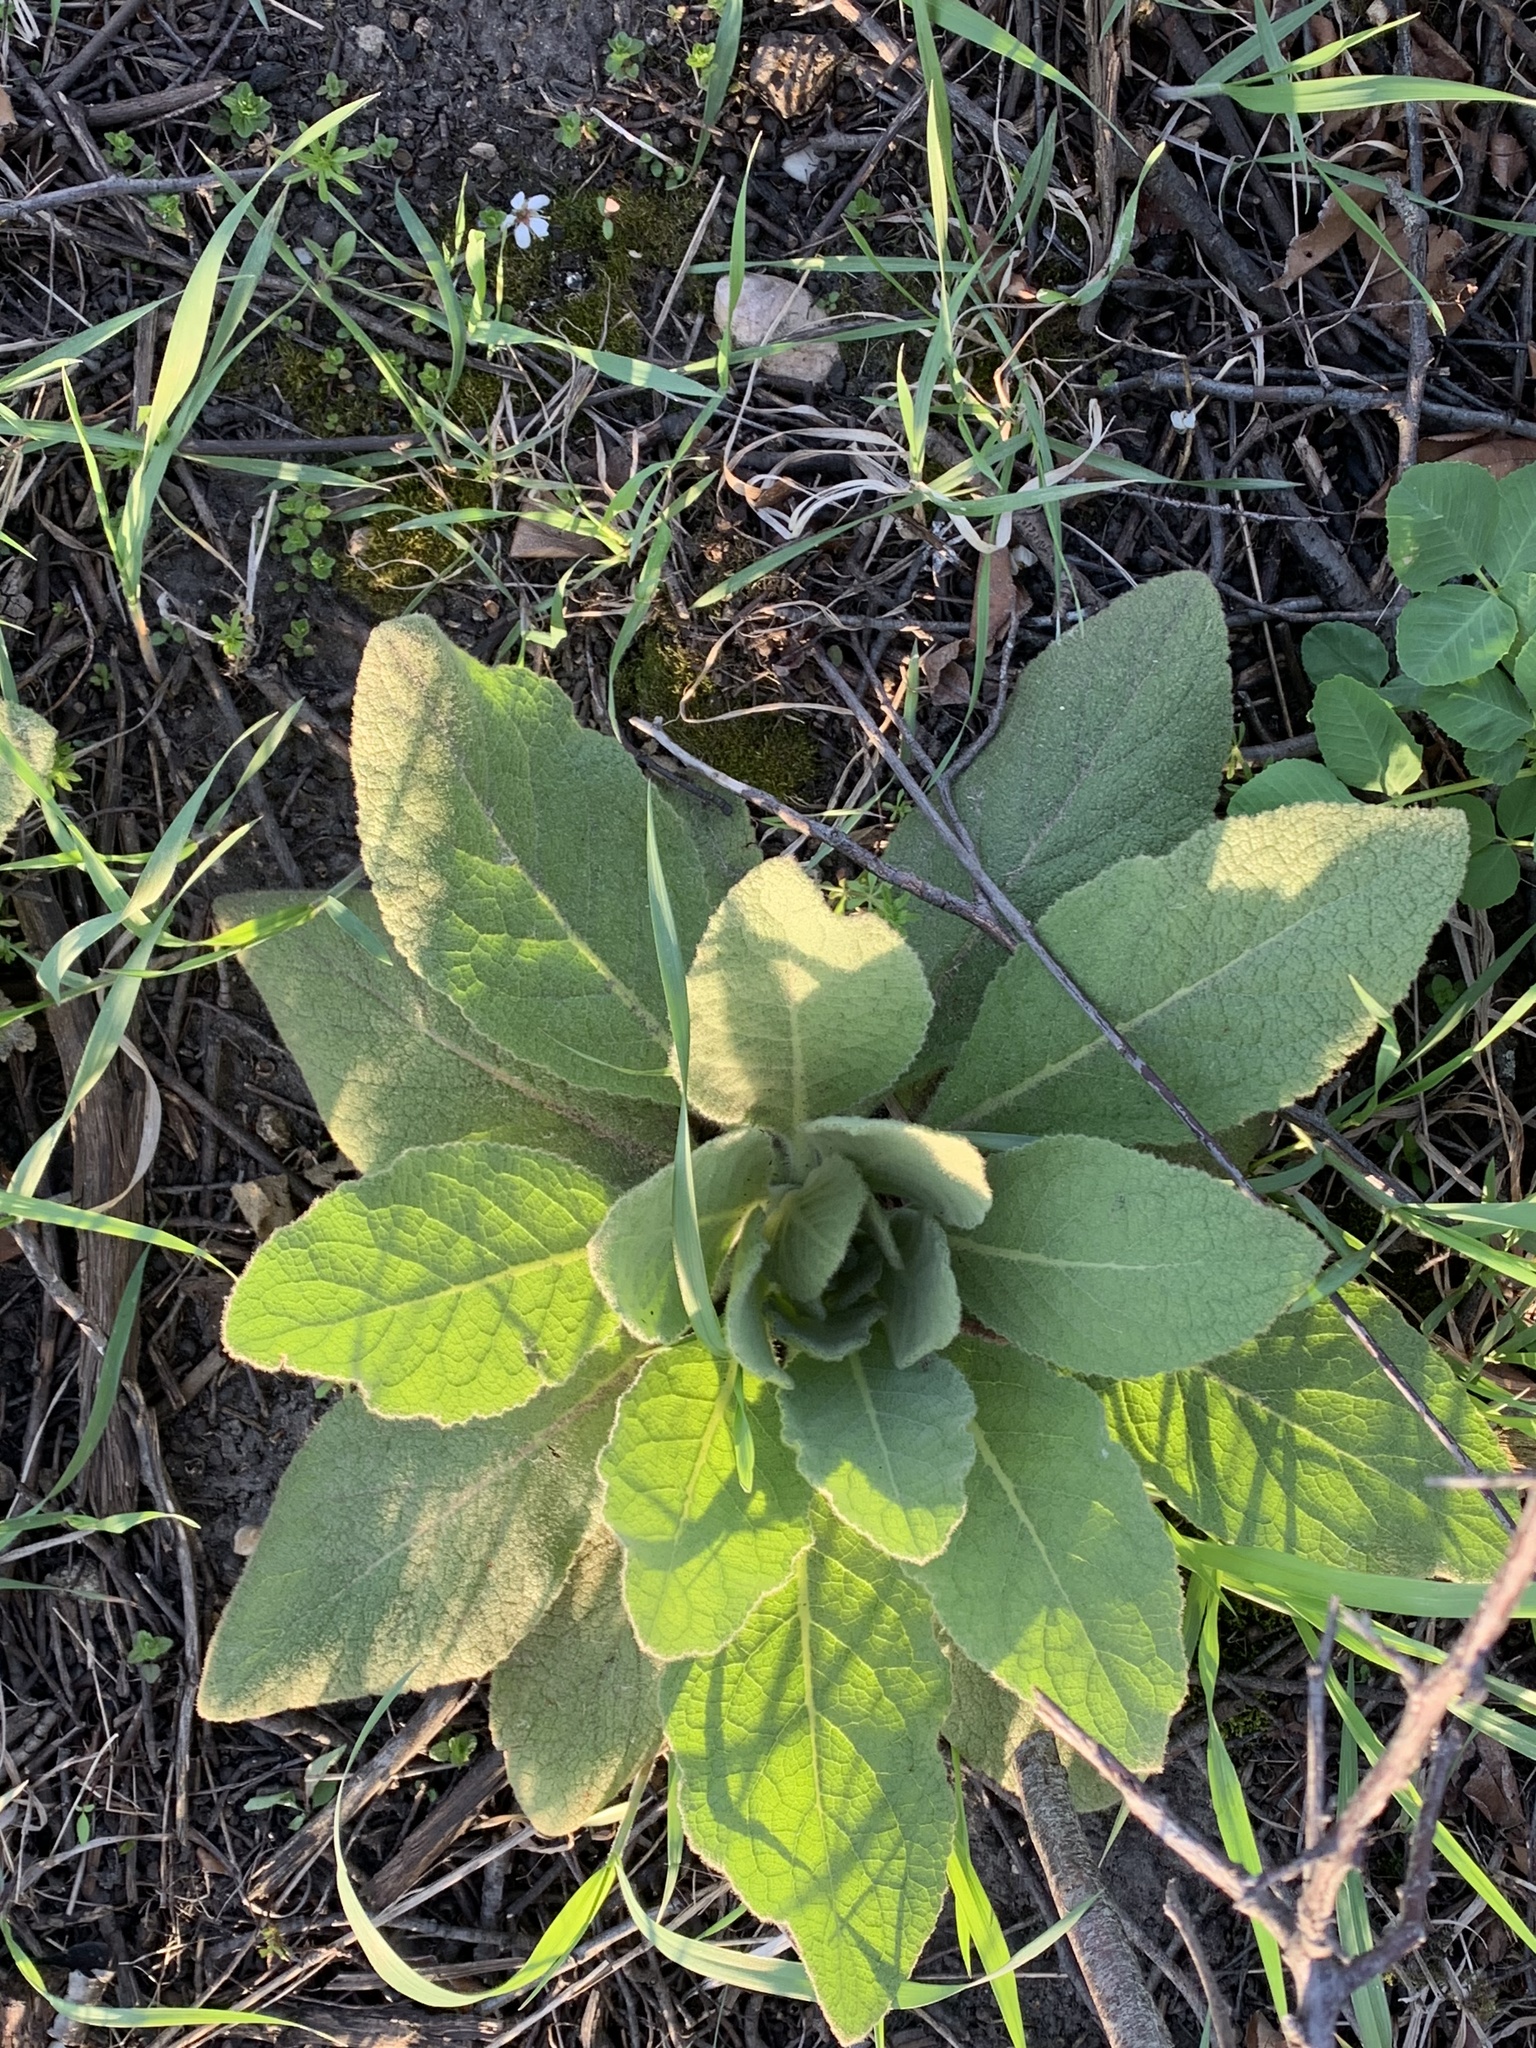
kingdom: Plantae
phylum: Tracheophyta
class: Magnoliopsida
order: Lamiales
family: Scrophulariaceae
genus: Verbascum
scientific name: Verbascum thapsus
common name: Common mullein
